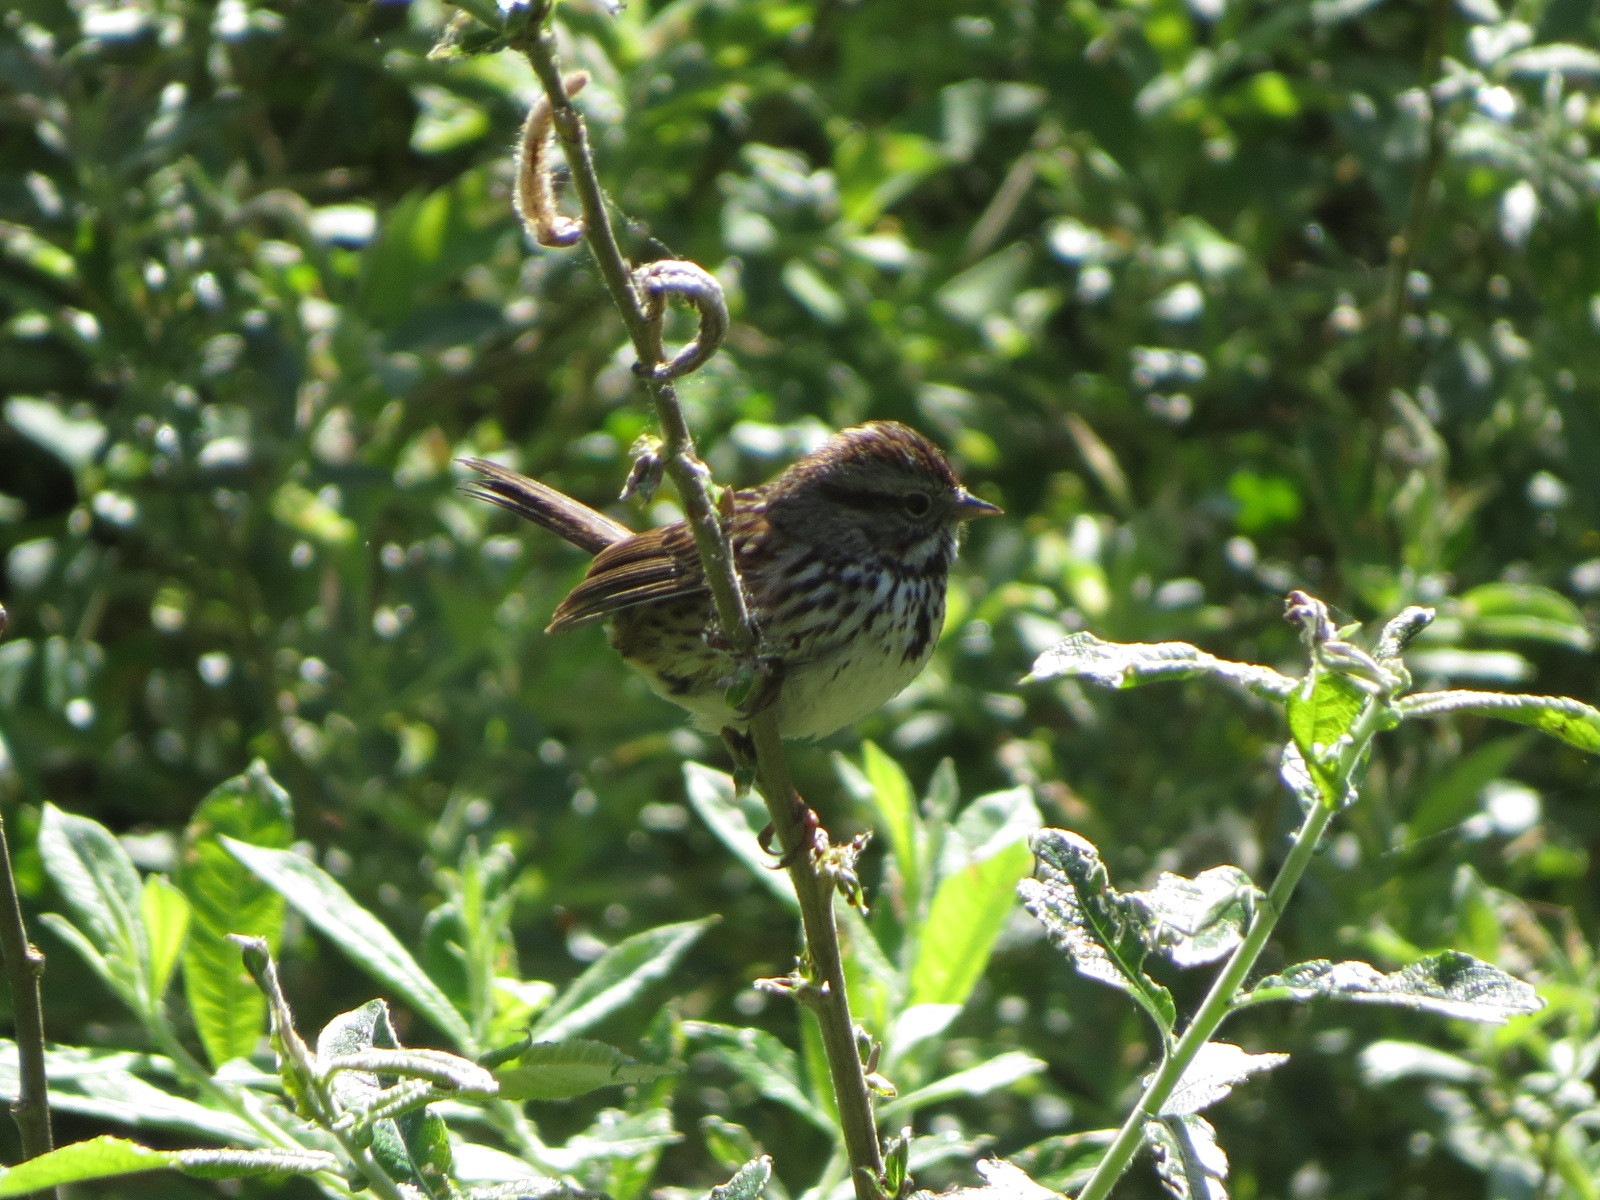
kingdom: Animalia
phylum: Chordata
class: Aves
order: Passeriformes
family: Passerellidae
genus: Melospiza
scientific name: Melospiza melodia
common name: Song sparrow
